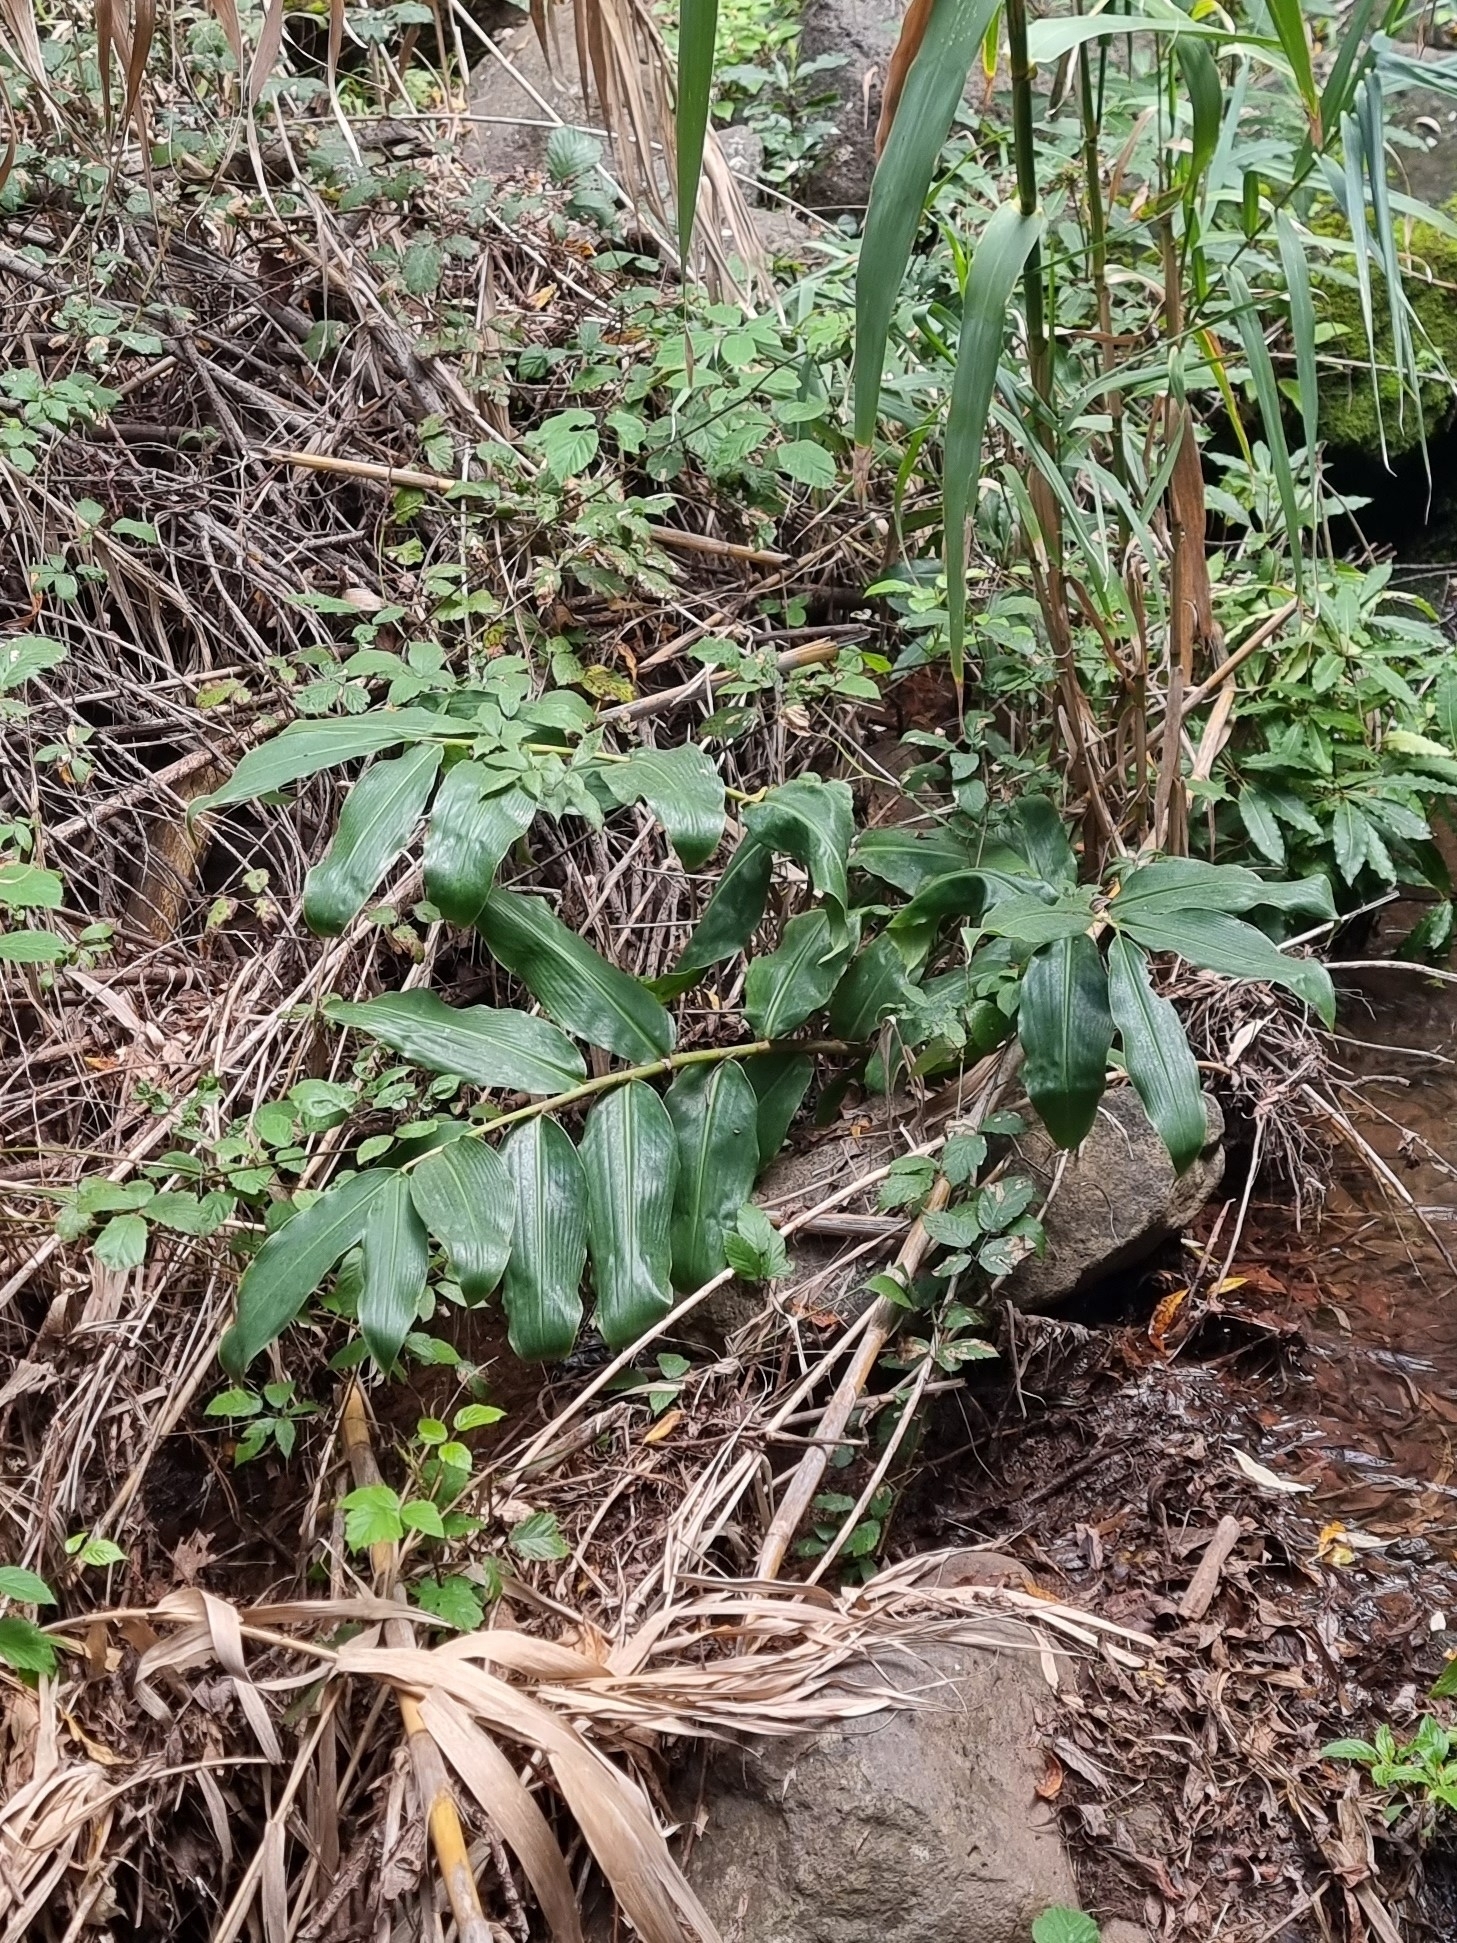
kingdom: Plantae
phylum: Tracheophyta
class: Liliopsida
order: Zingiberales
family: Zingiberaceae
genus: Hedychium
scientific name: Hedychium gardnerianum
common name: Himalayan ginger
